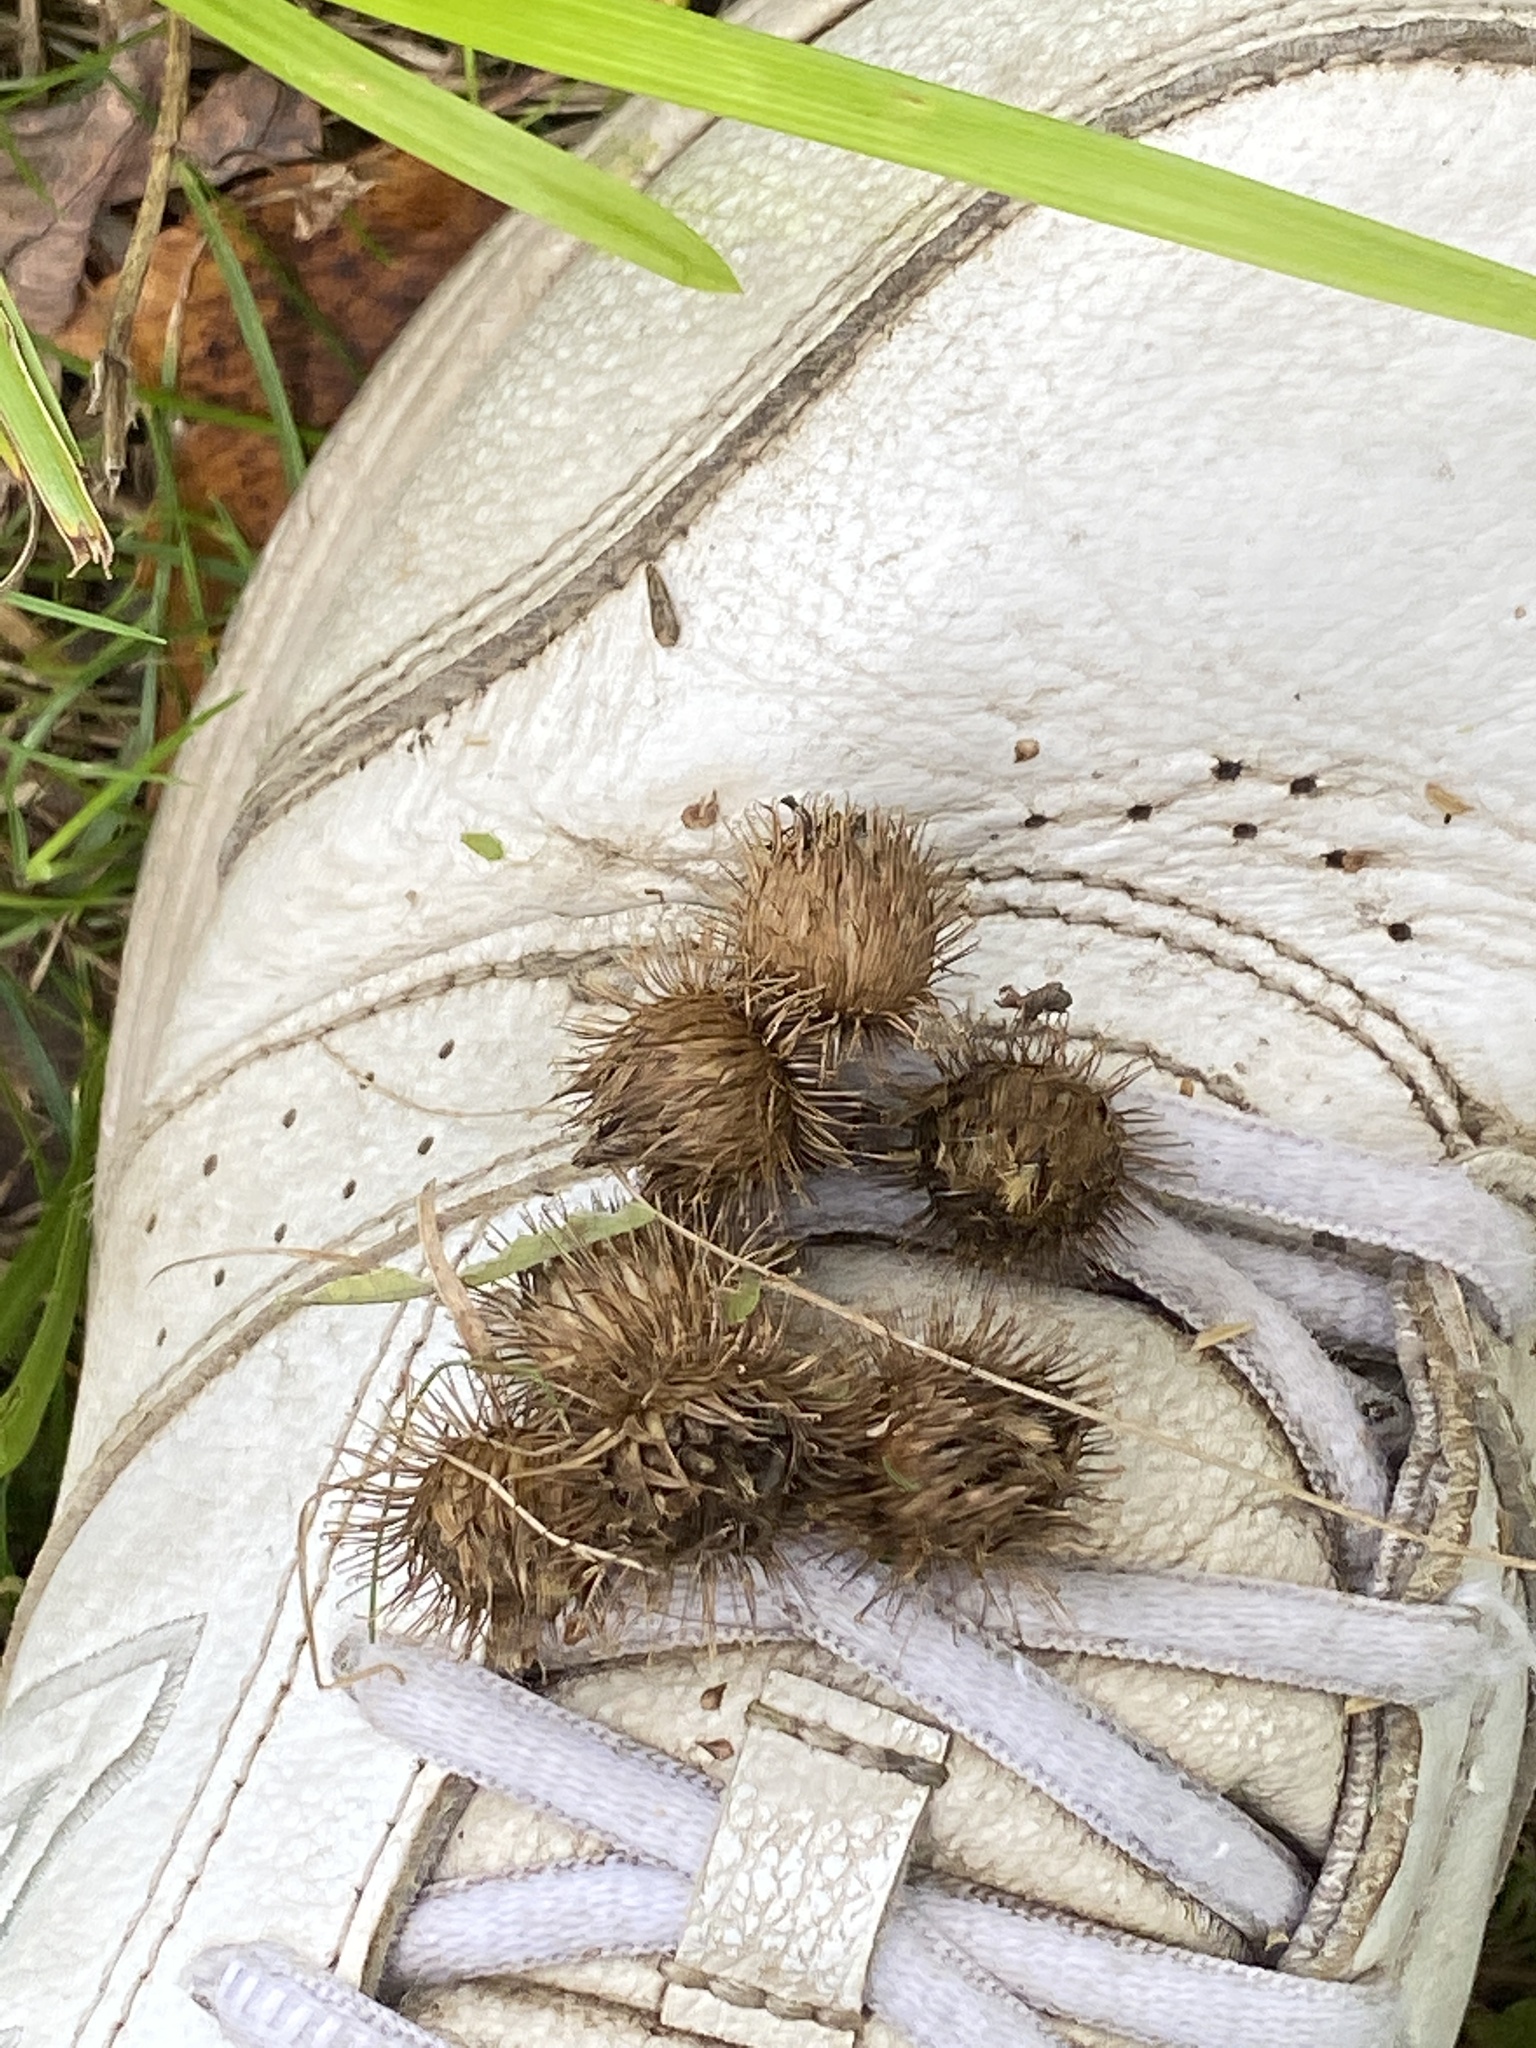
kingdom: Plantae
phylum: Tracheophyta
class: Magnoliopsida
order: Asterales
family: Asteraceae
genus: Arctium
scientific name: Arctium
